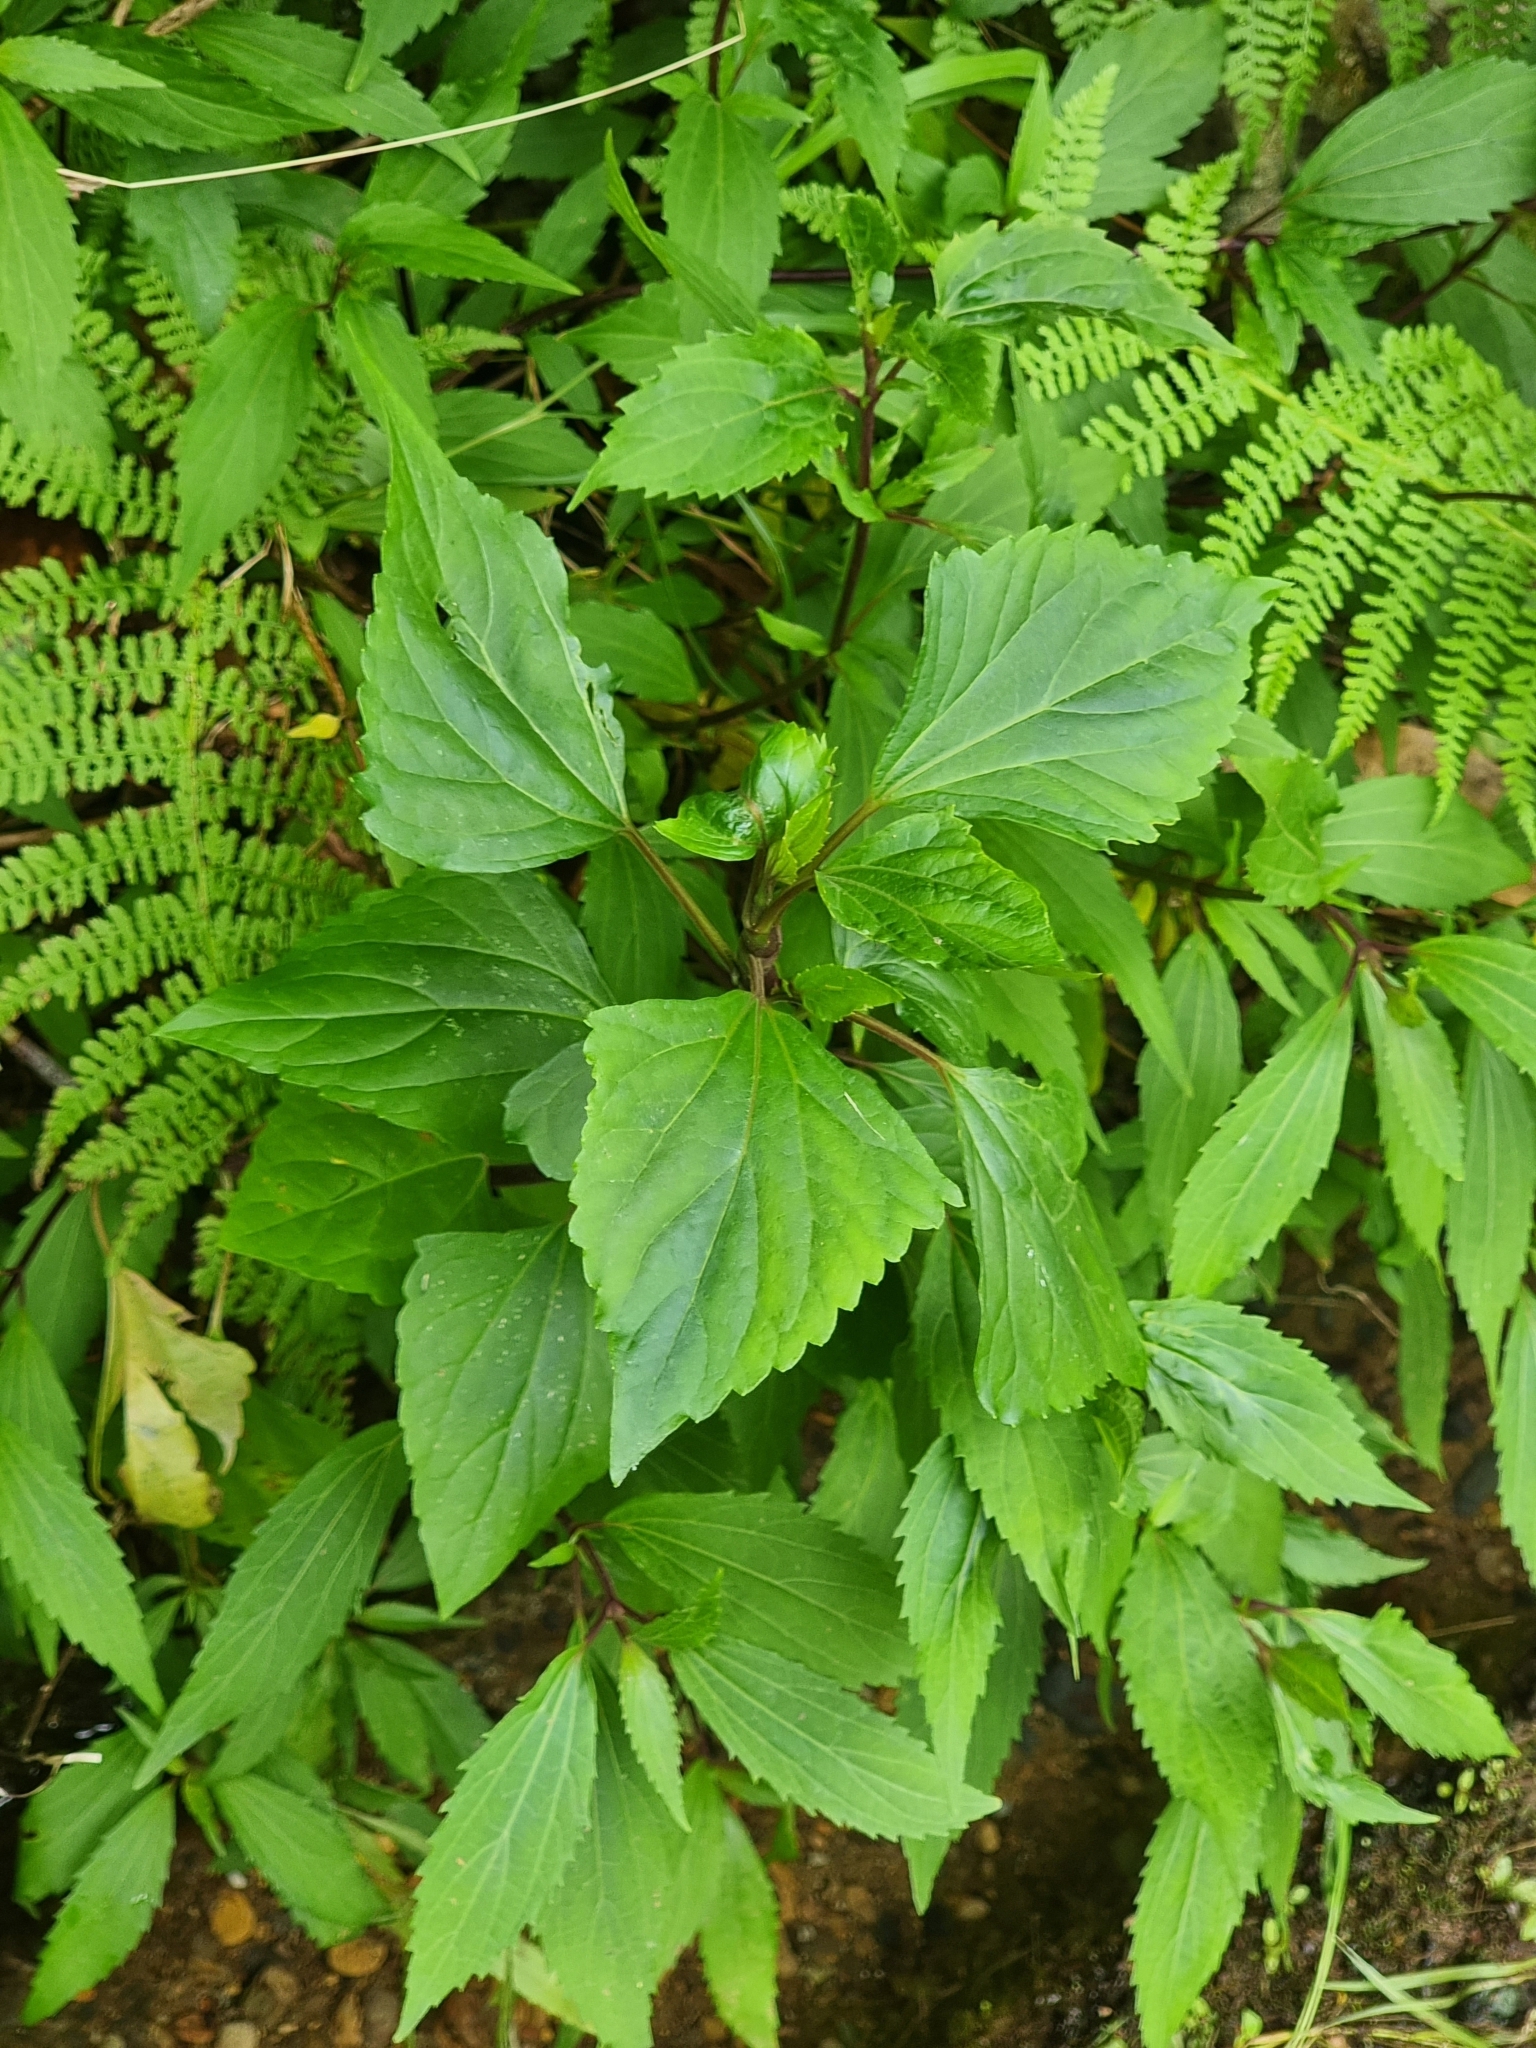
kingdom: Plantae
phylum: Tracheophyta
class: Magnoliopsida
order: Asterales
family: Asteraceae
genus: Ageratina
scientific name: Ageratina adenophora
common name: Sticky snakeroot
